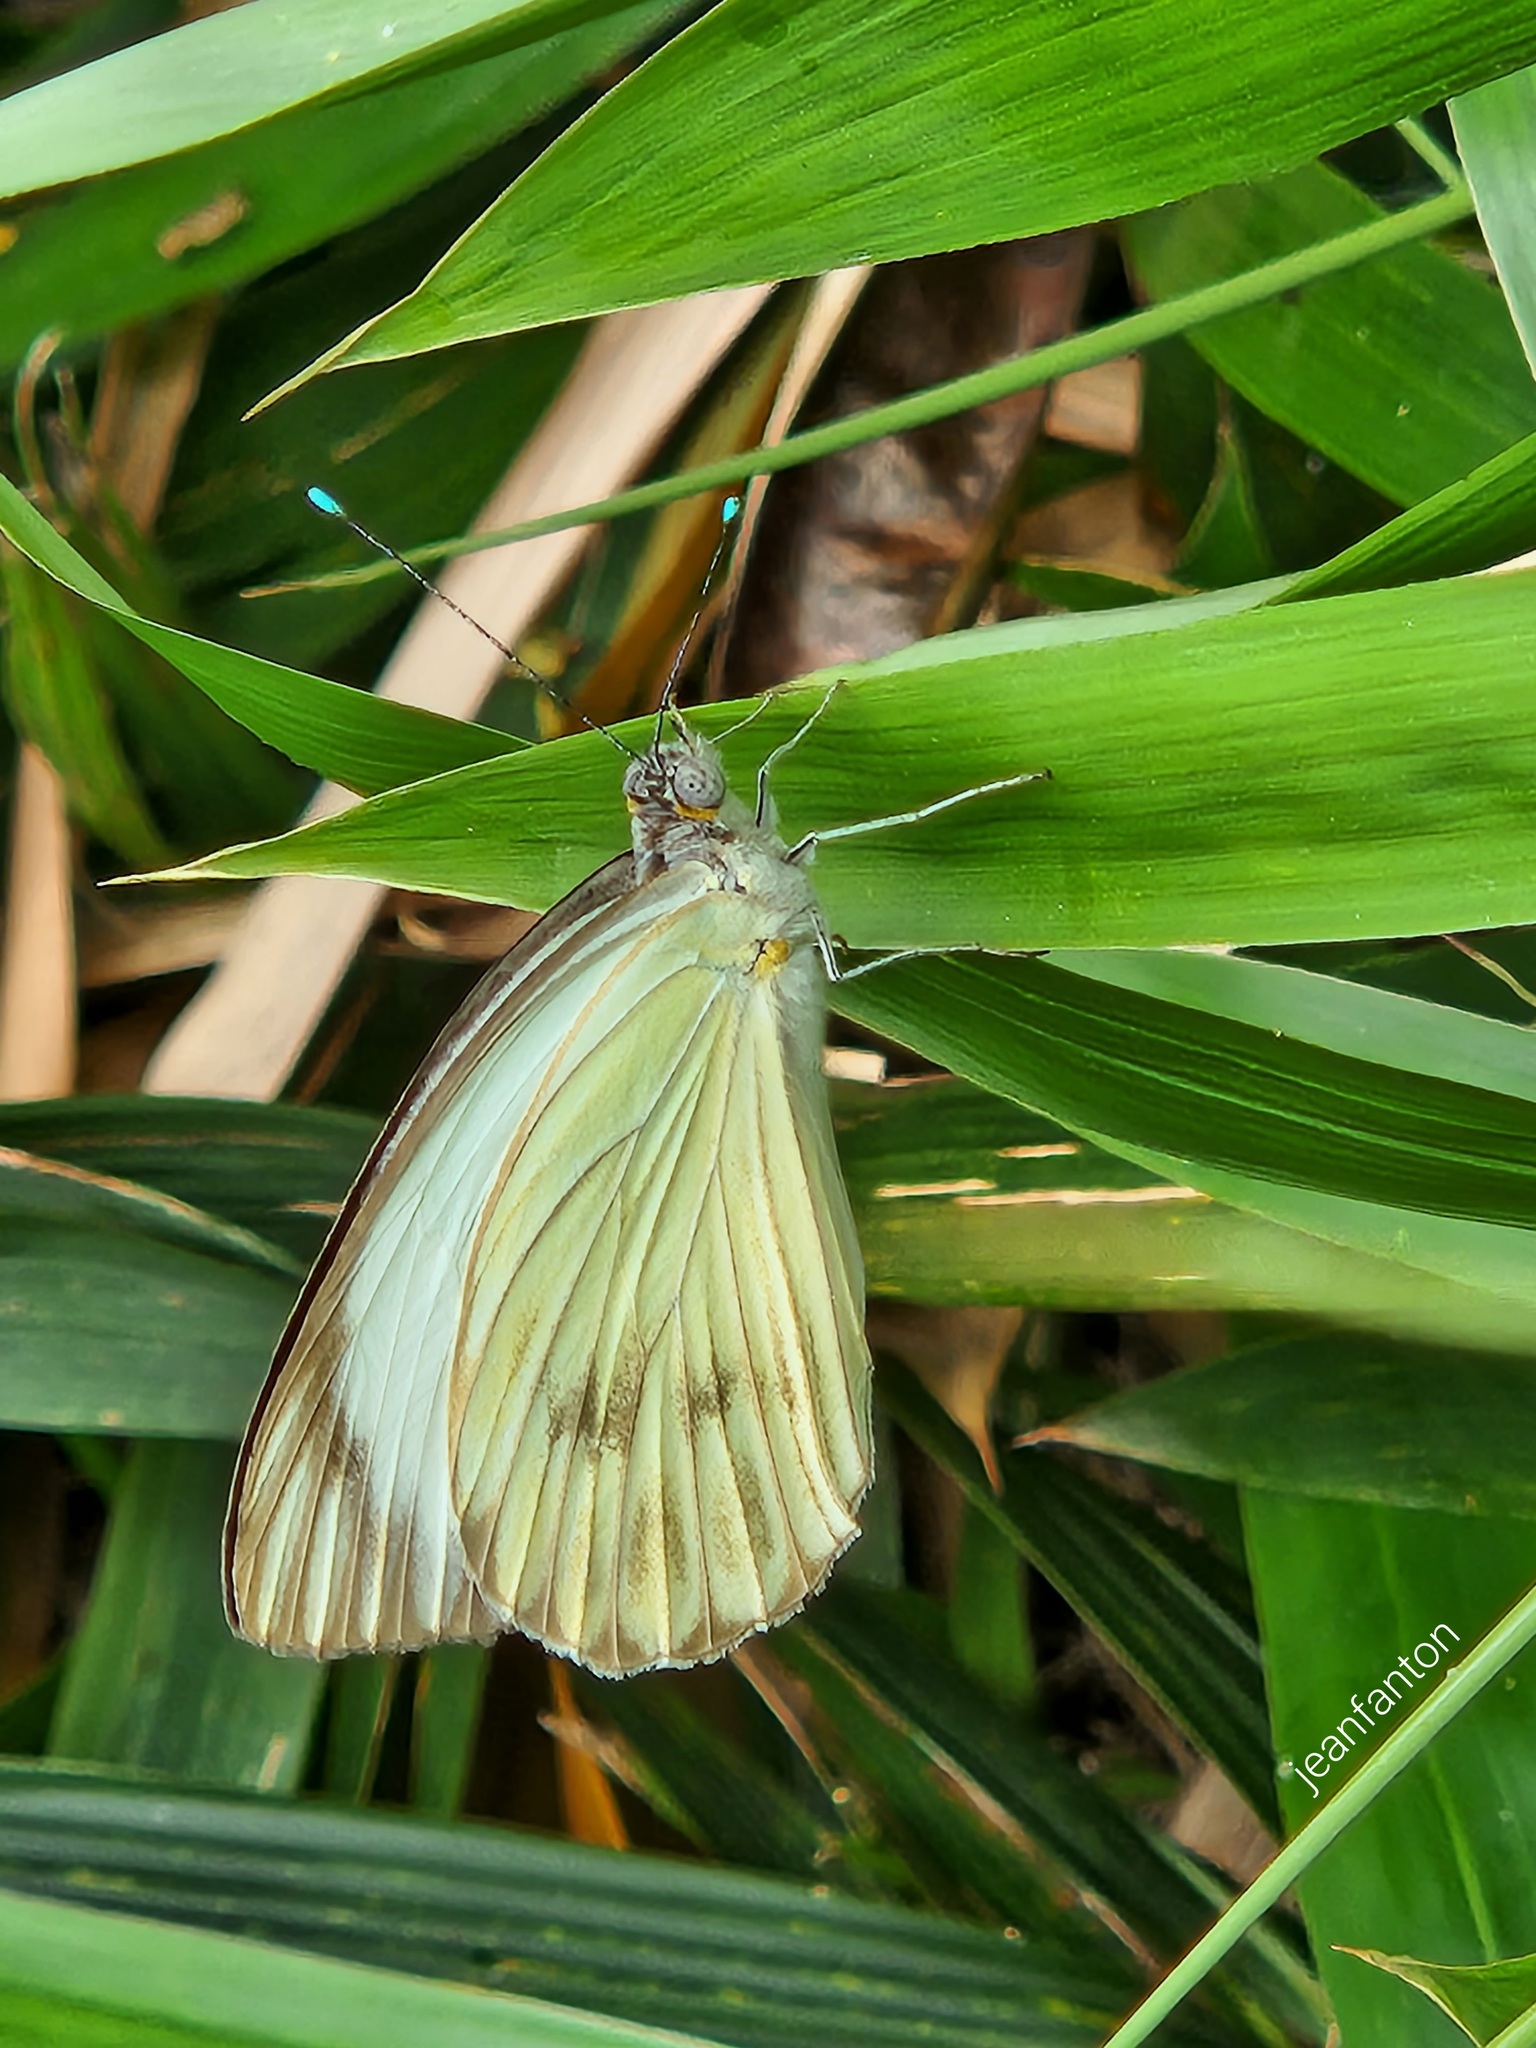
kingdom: Animalia
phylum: Arthropoda
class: Insecta
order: Lepidoptera
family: Pieridae
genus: Ascia
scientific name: Ascia monuste
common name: Great southern white
